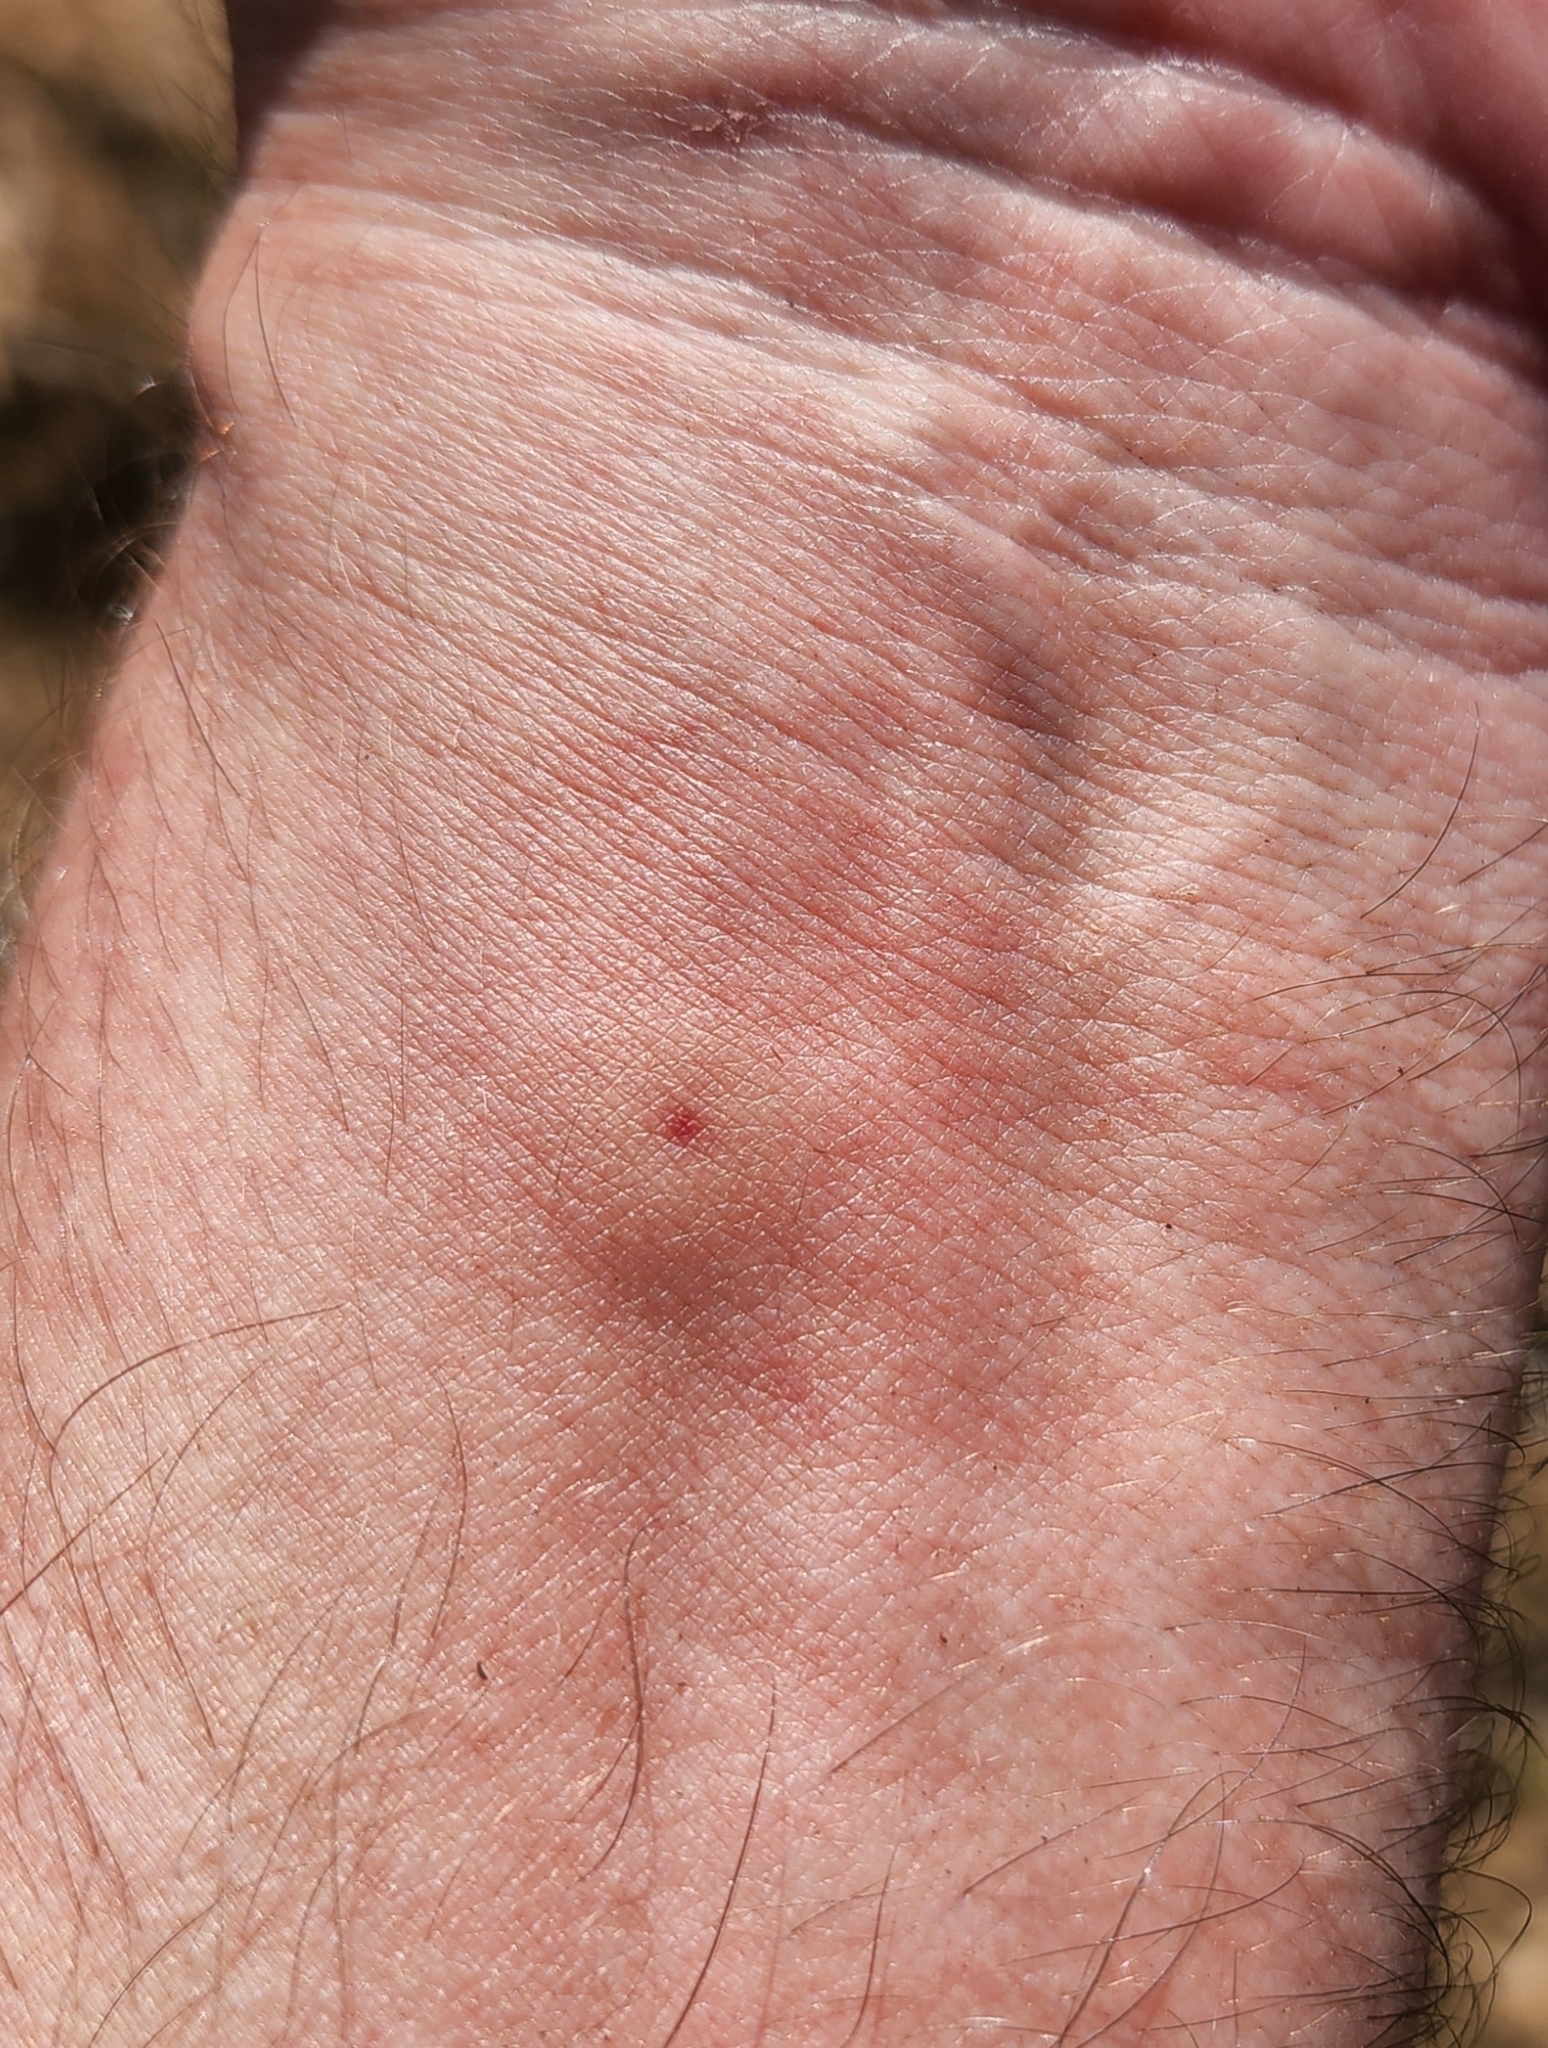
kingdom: Animalia
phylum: Arthropoda
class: Insecta
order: Hymenoptera
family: Eumenidae
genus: Polistes
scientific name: Polistes dorsalis
